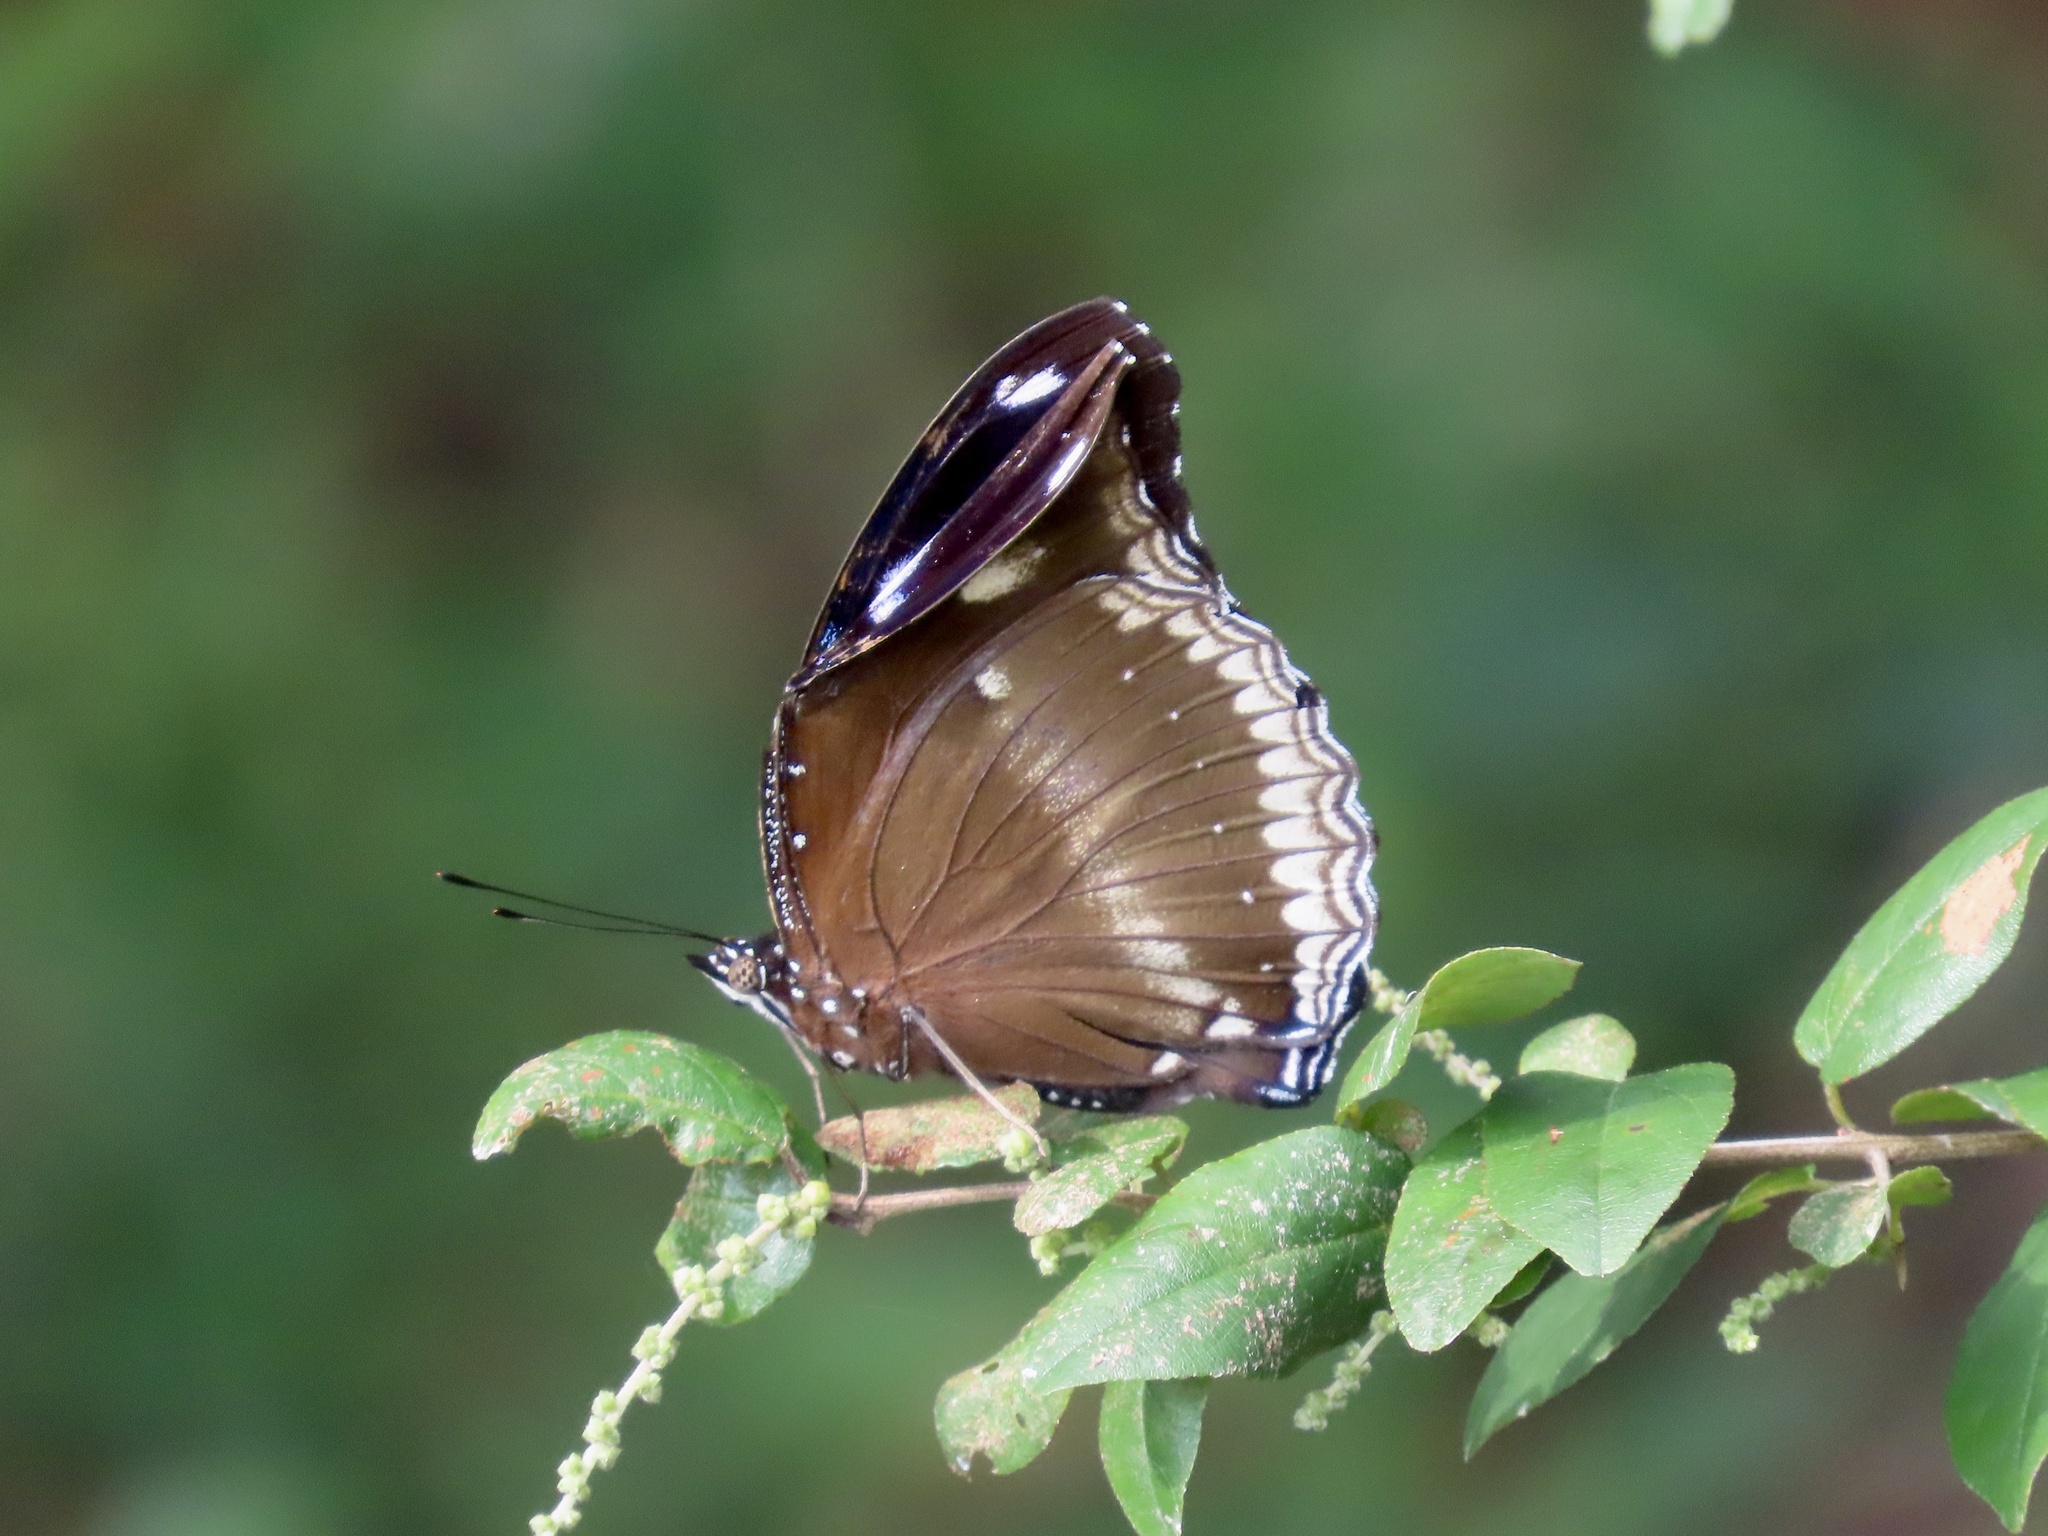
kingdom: Animalia
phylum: Arthropoda
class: Insecta
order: Lepidoptera
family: Nymphalidae
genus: Hypolimnas
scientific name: Hypolimnas bolina
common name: Great eggfly
